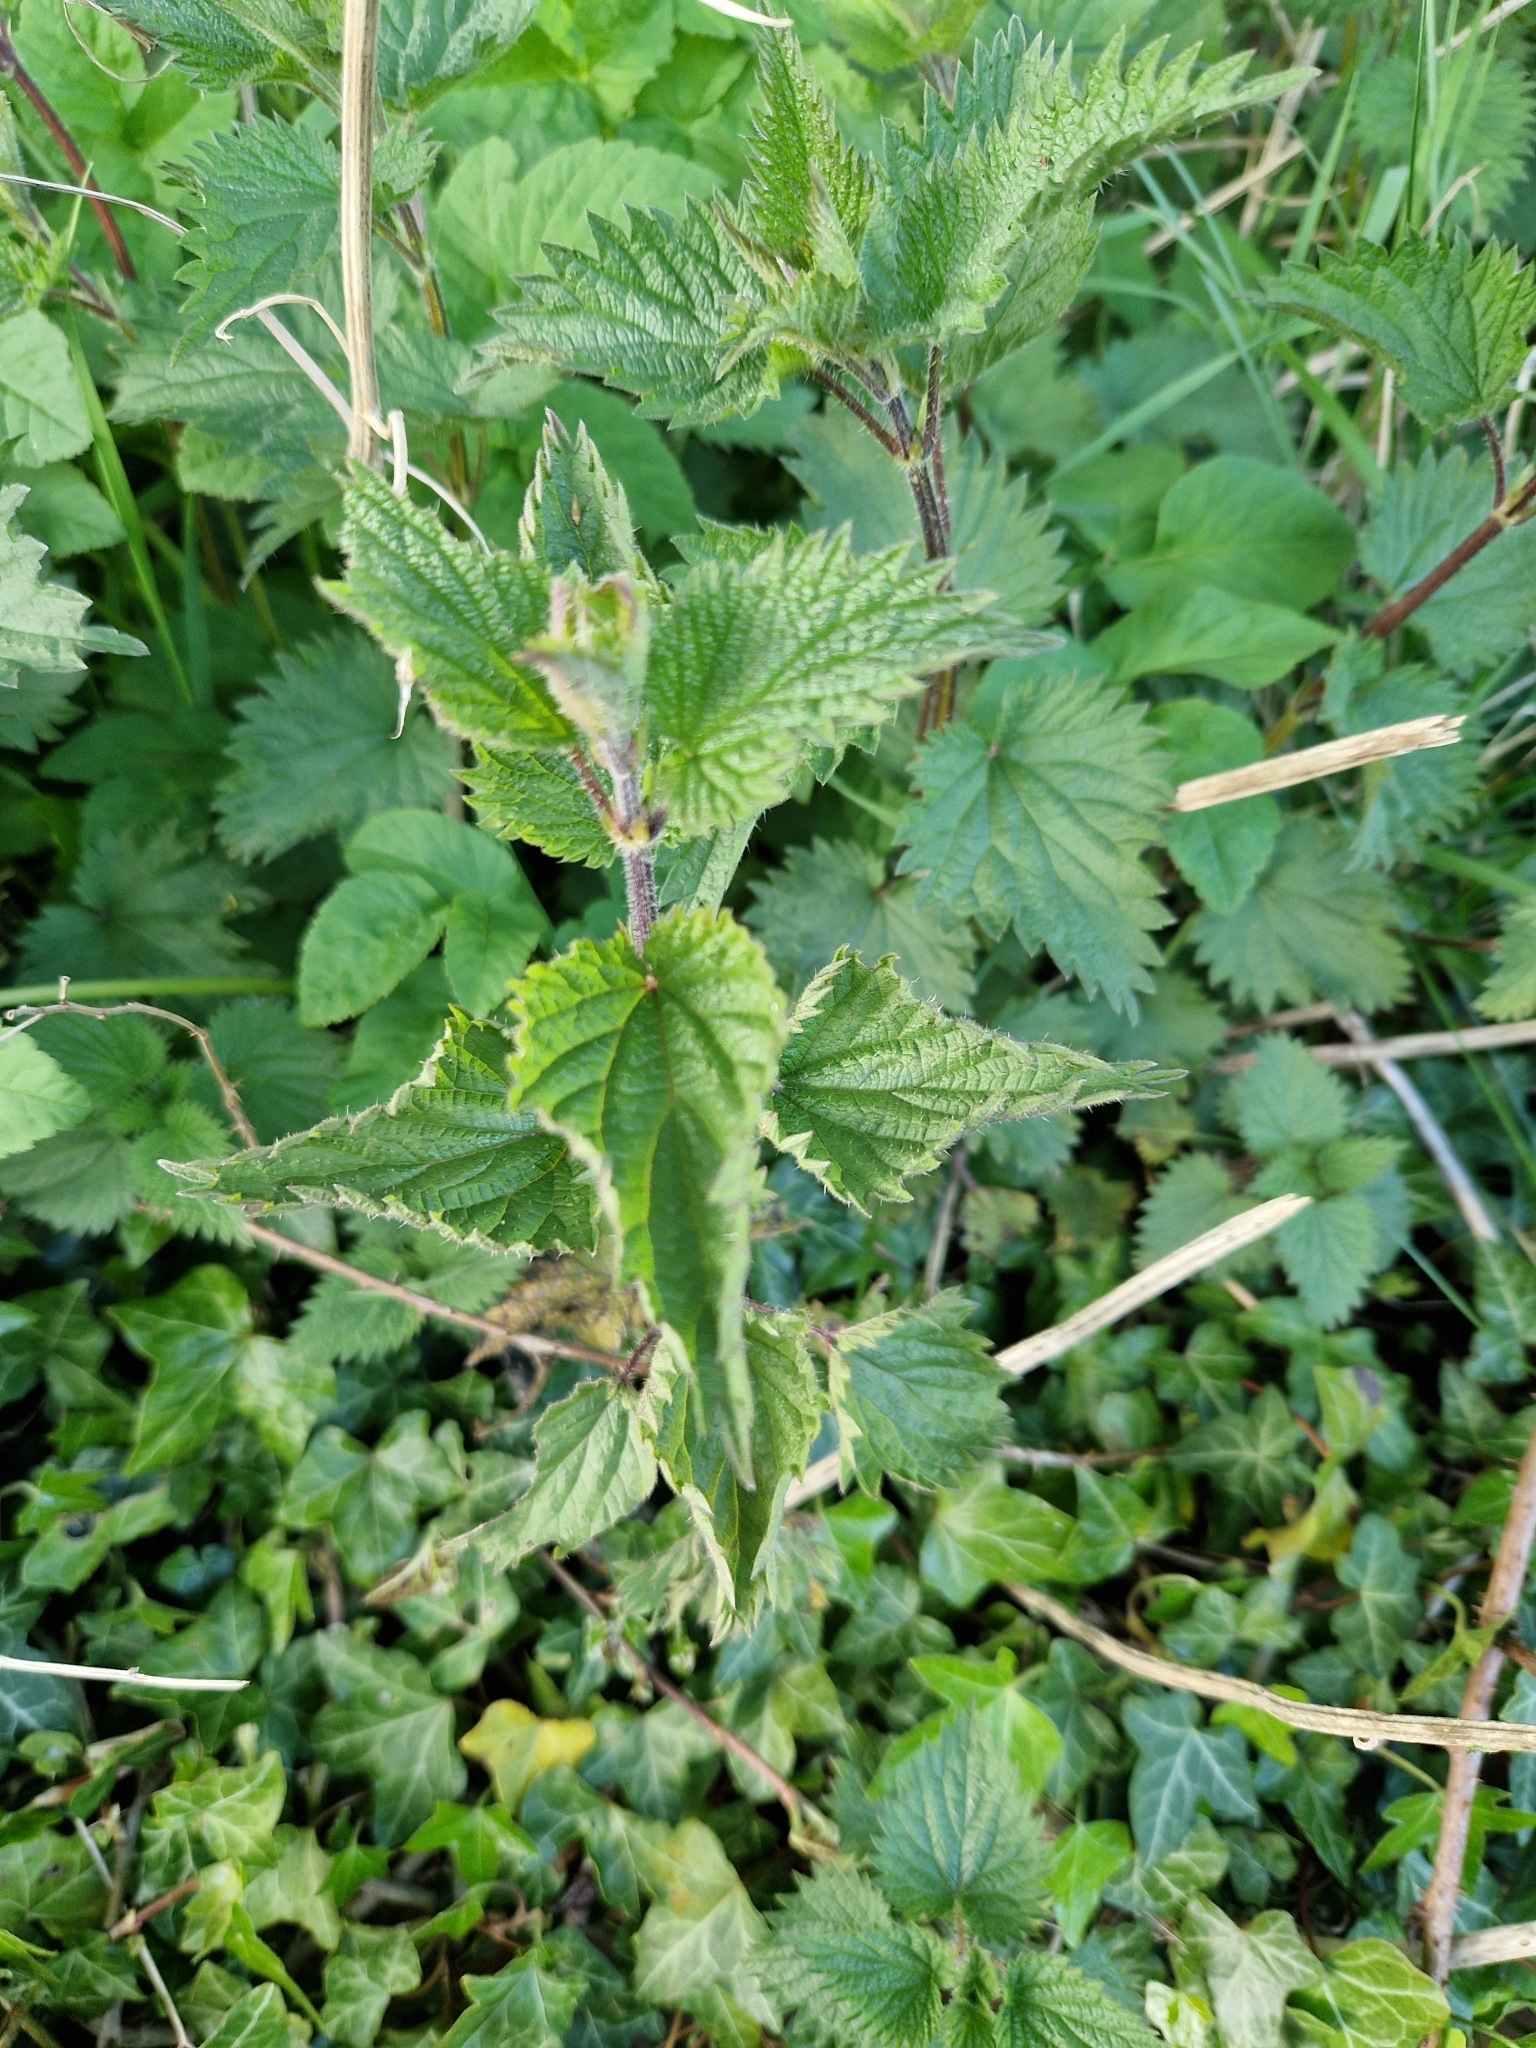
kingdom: Plantae
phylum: Tracheophyta
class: Magnoliopsida
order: Rosales
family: Urticaceae
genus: Urtica
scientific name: Urtica dioica
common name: Common nettle
